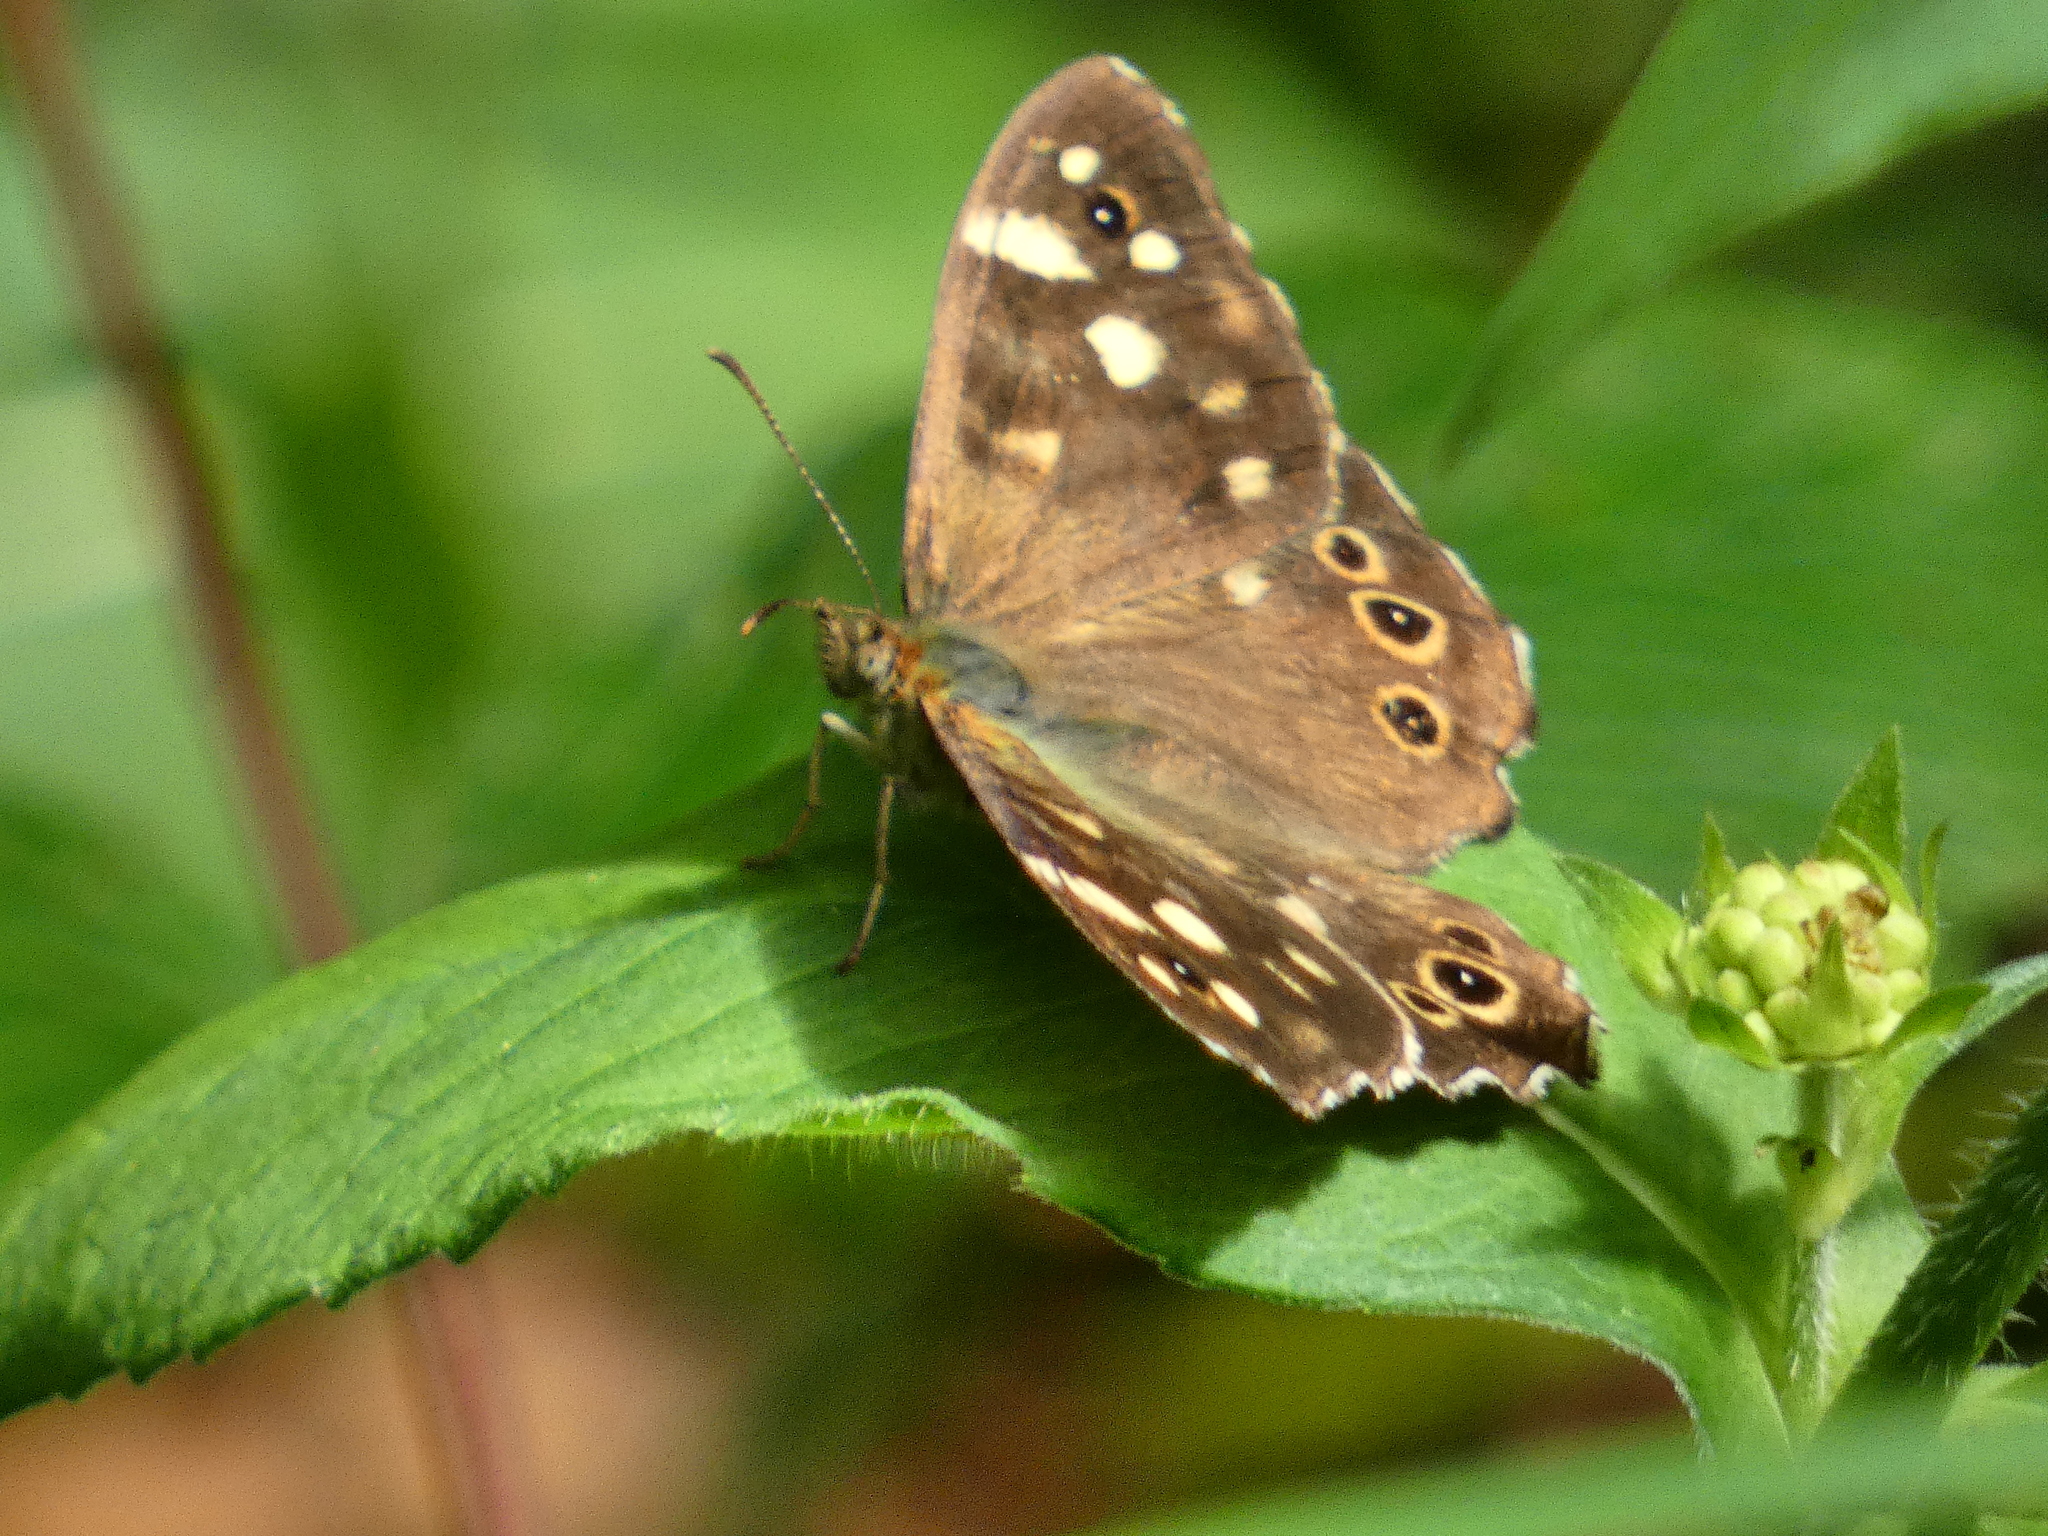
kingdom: Animalia
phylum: Arthropoda
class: Insecta
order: Lepidoptera
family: Nymphalidae
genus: Pararge
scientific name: Pararge aegeria
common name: Speckled wood
